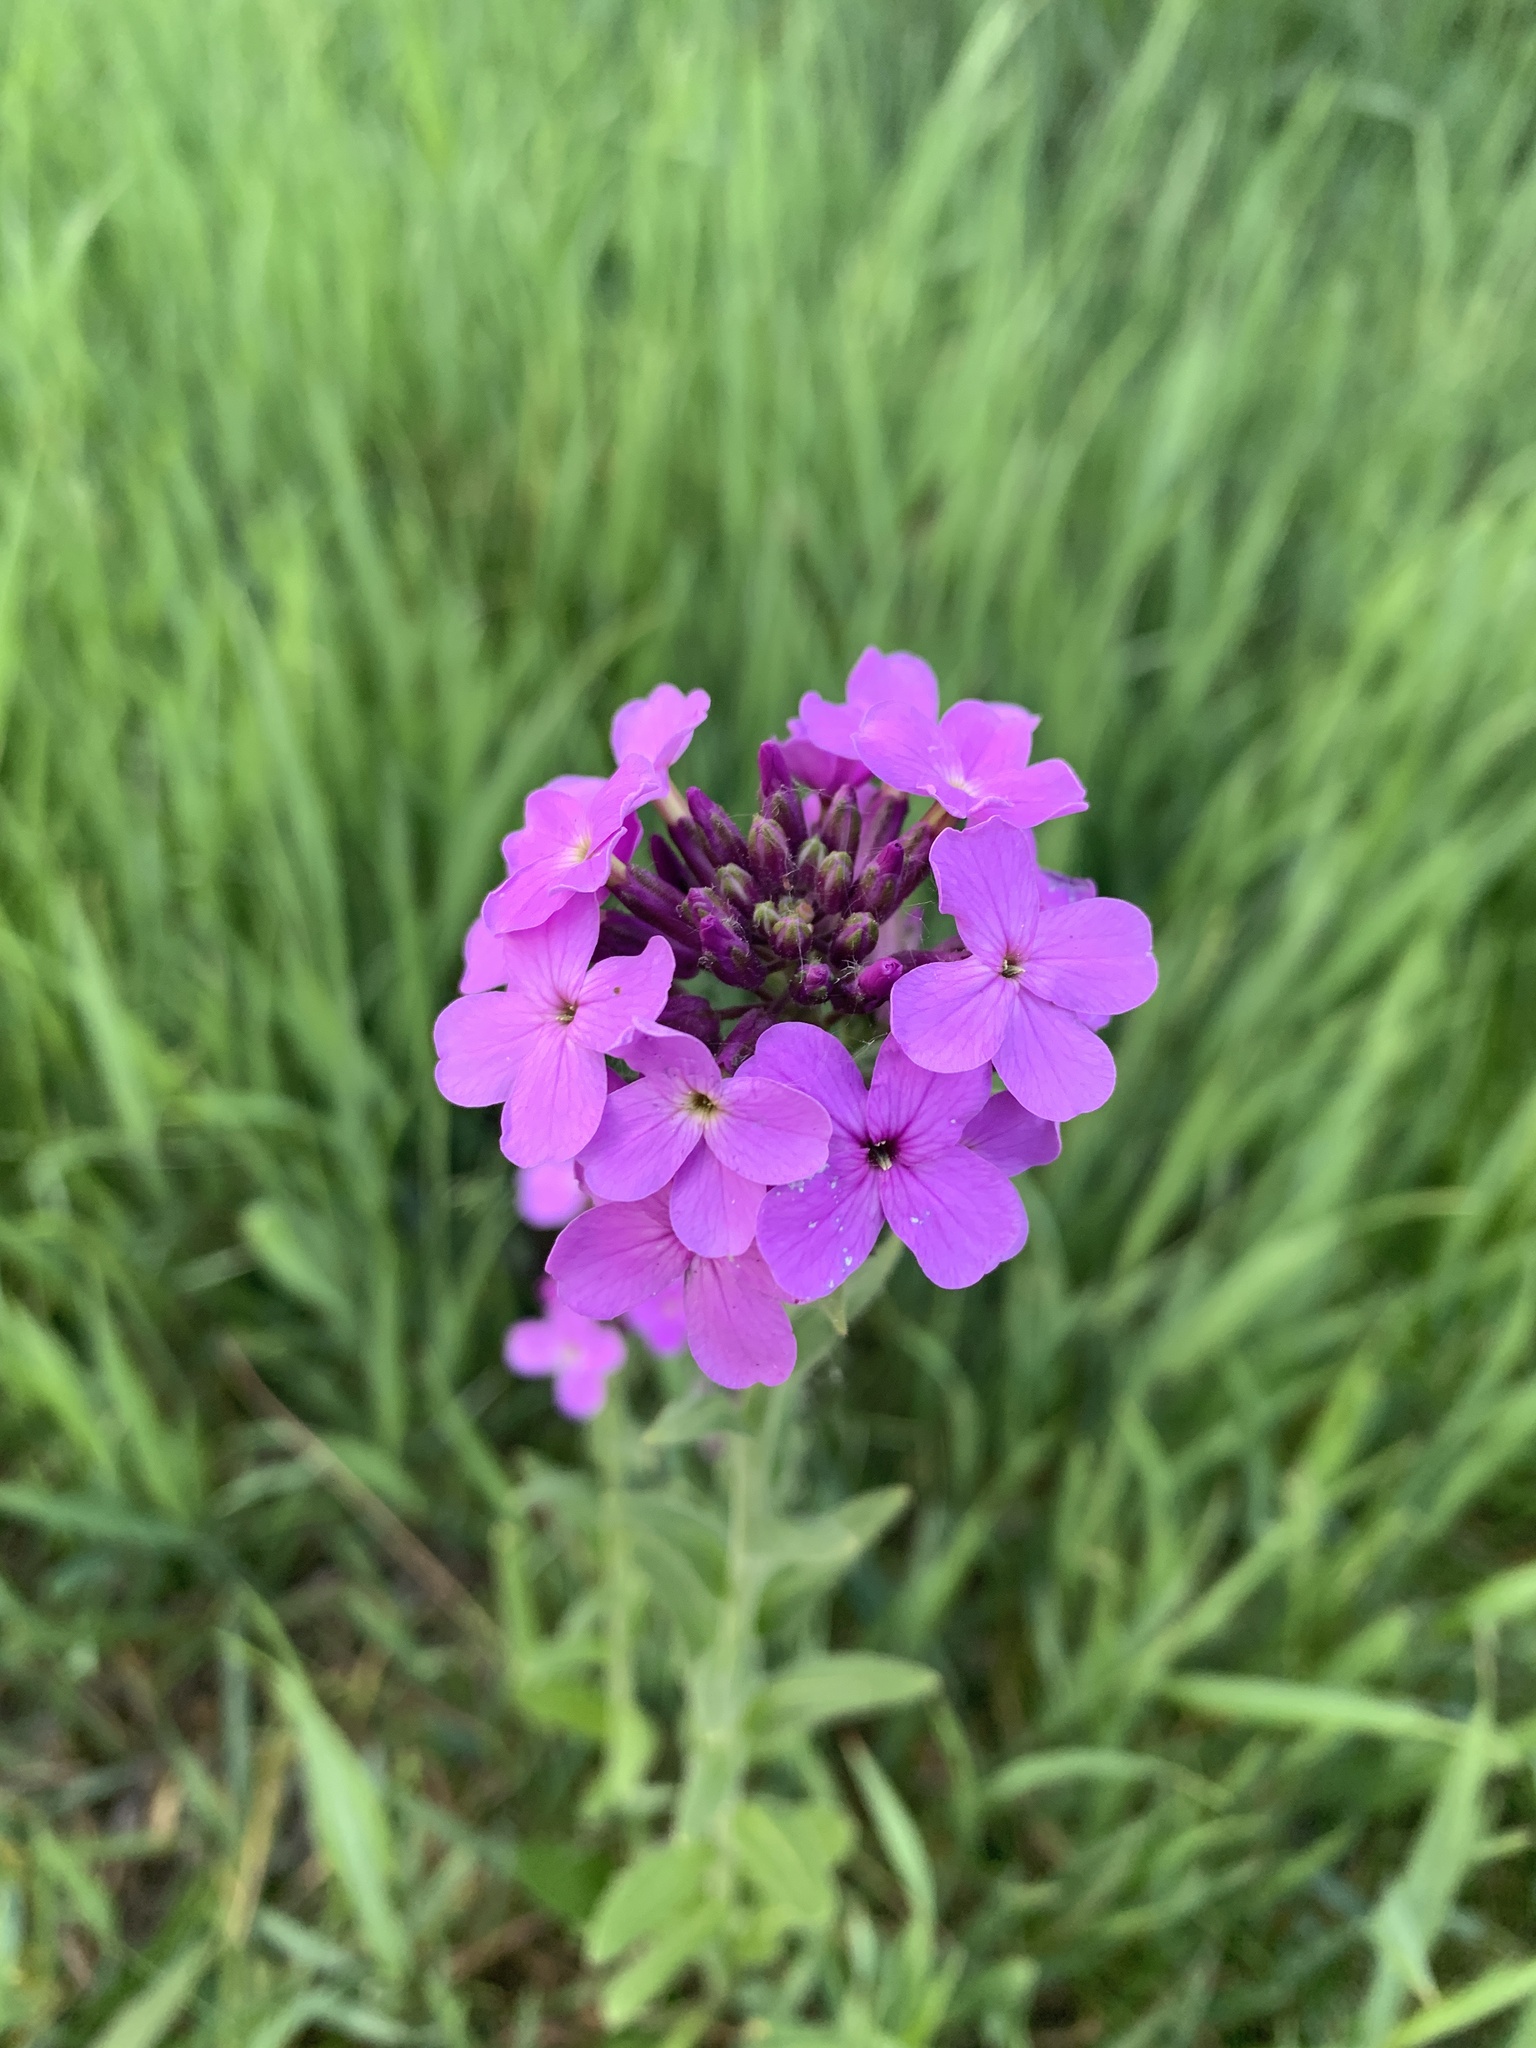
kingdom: Plantae
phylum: Tracheophyta
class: Magnoliopsida
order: Brassicales
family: Brassicaceae
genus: Hesperis
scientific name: Hesperis matronalis
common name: Dame's-violet
